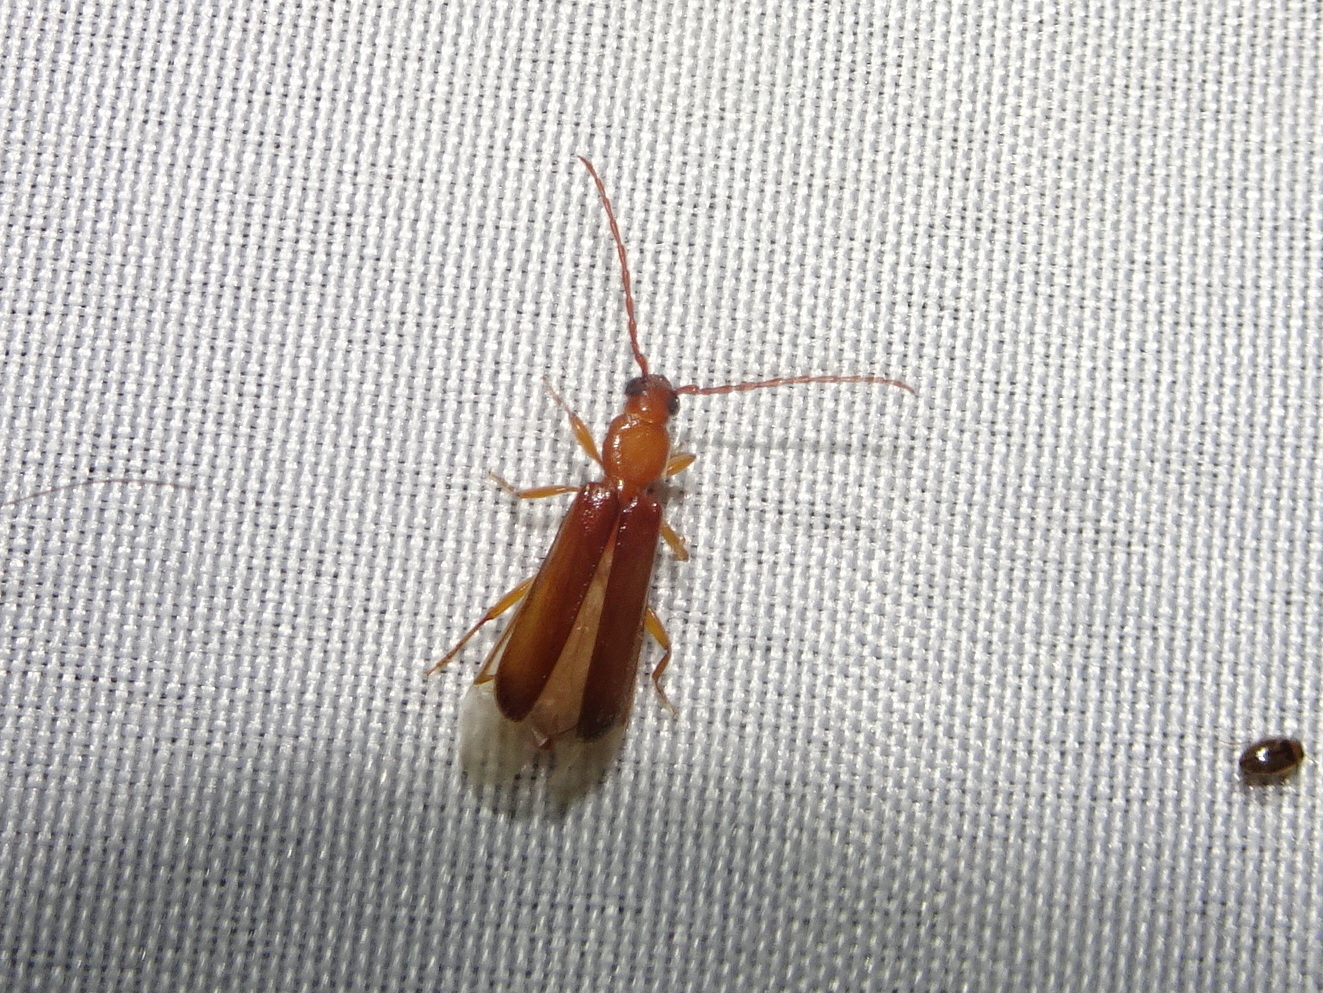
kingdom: Animalia
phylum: Arthropoda
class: Insecta
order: Coleoptera
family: Cerambycidae
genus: Smodicum
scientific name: Smodicum cucujiforme
